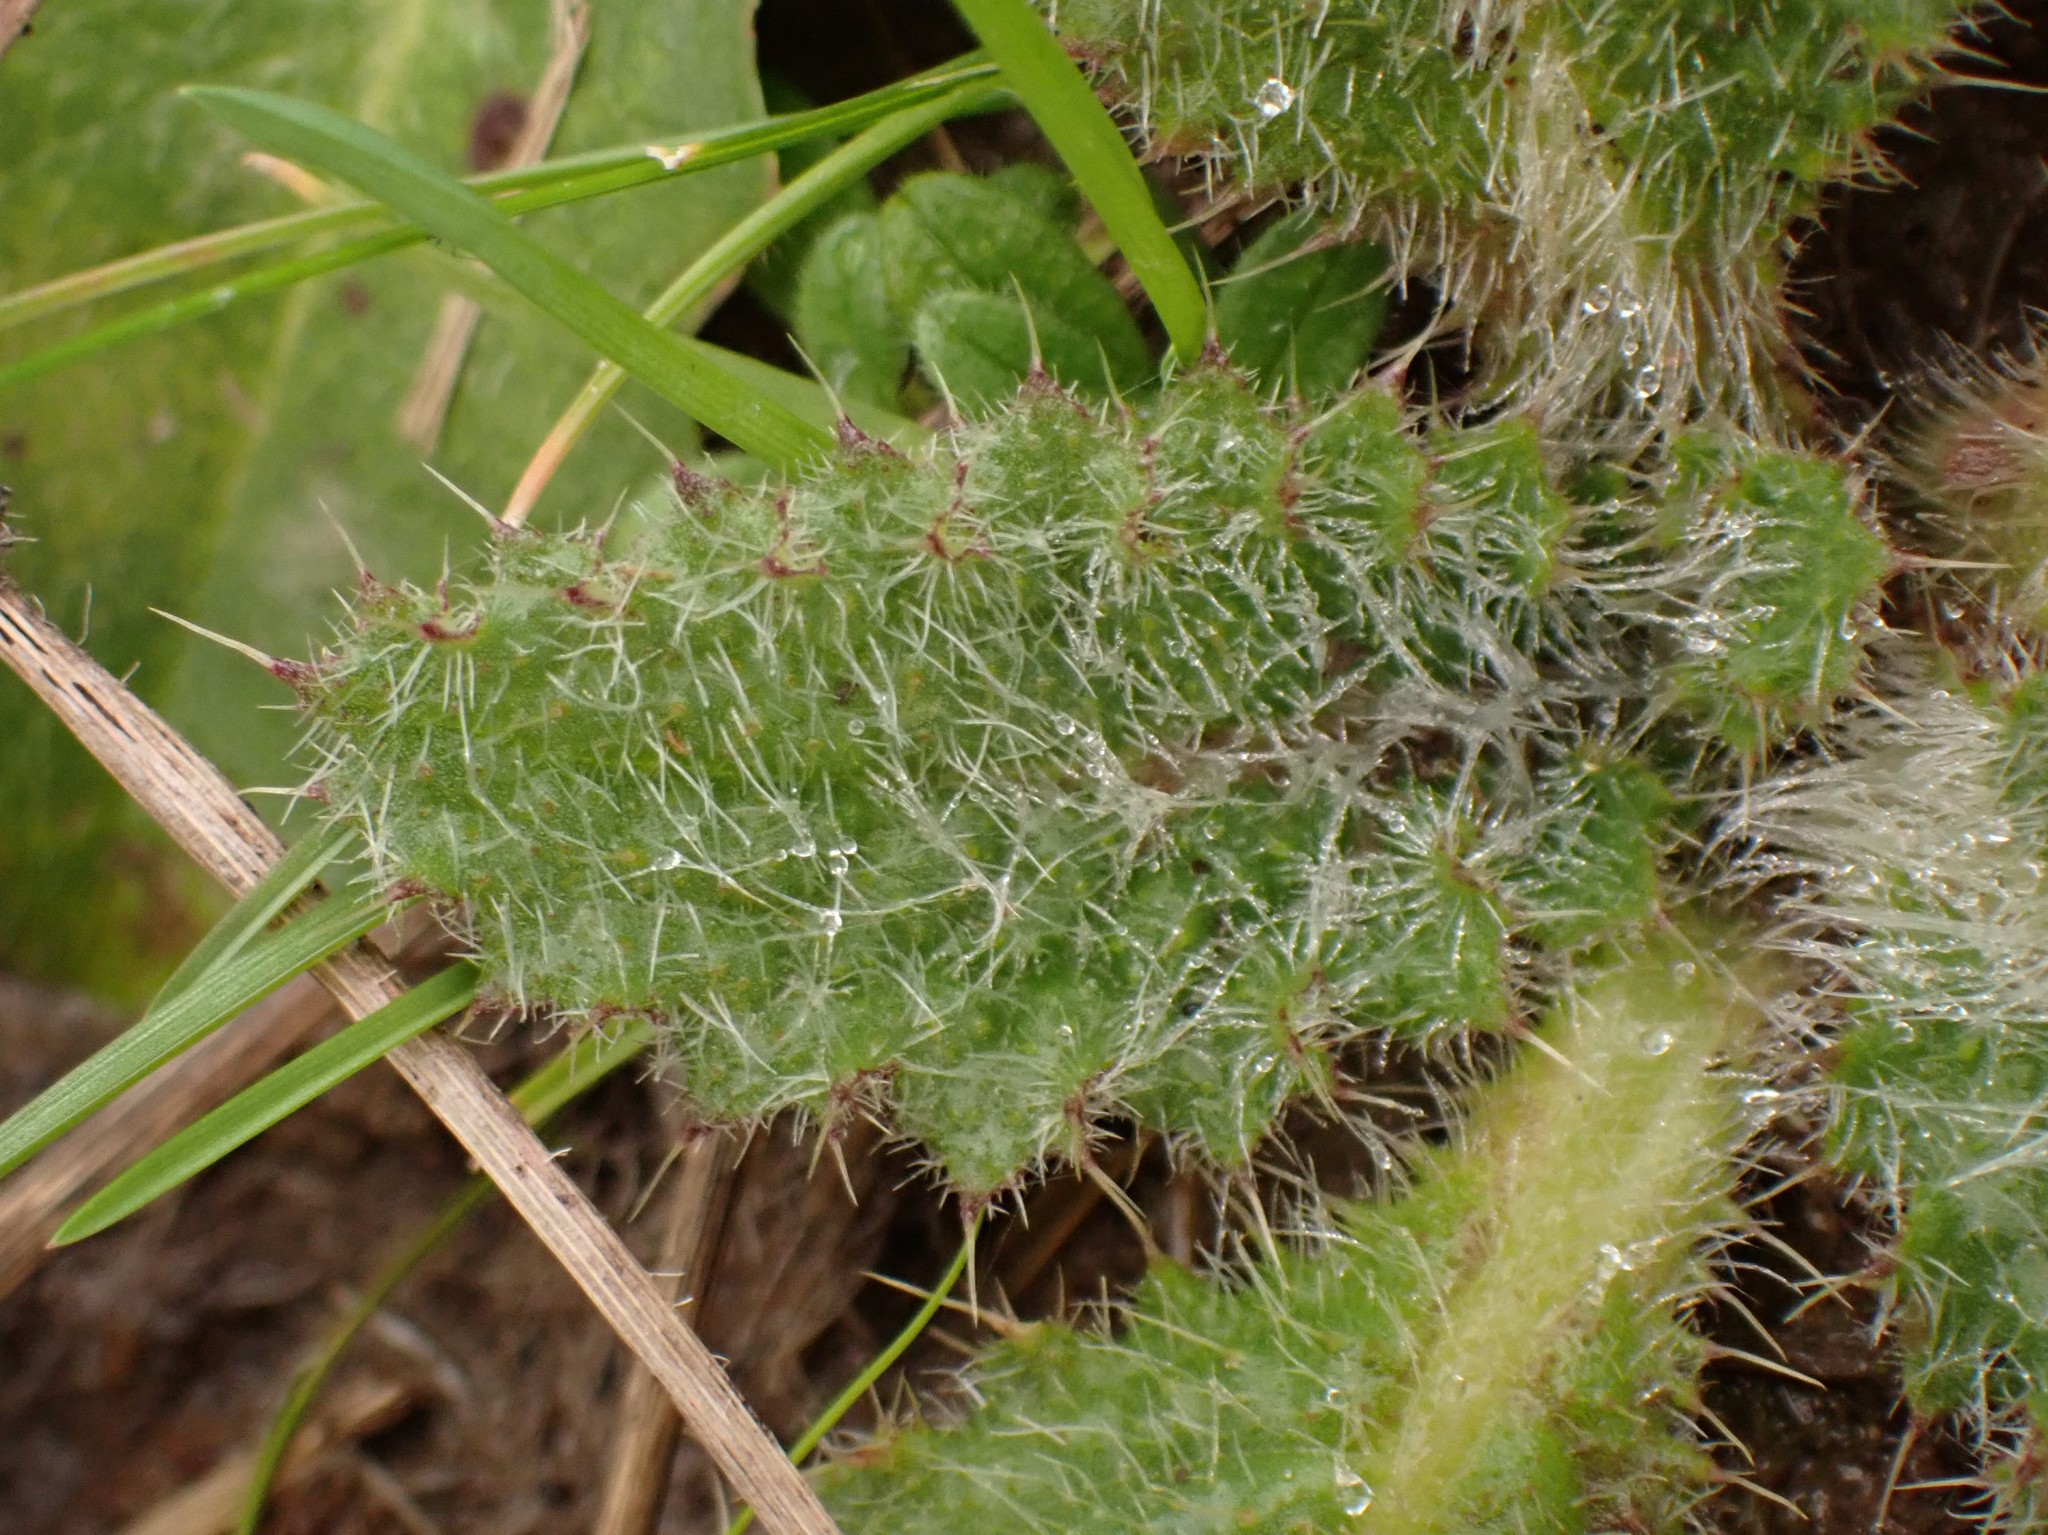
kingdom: Plantae
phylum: Tracheophyta
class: Magnoliopsida
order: Asterales
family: Asteraceae
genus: Cirsium
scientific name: Cirsium vulgare
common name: Bull thistle
